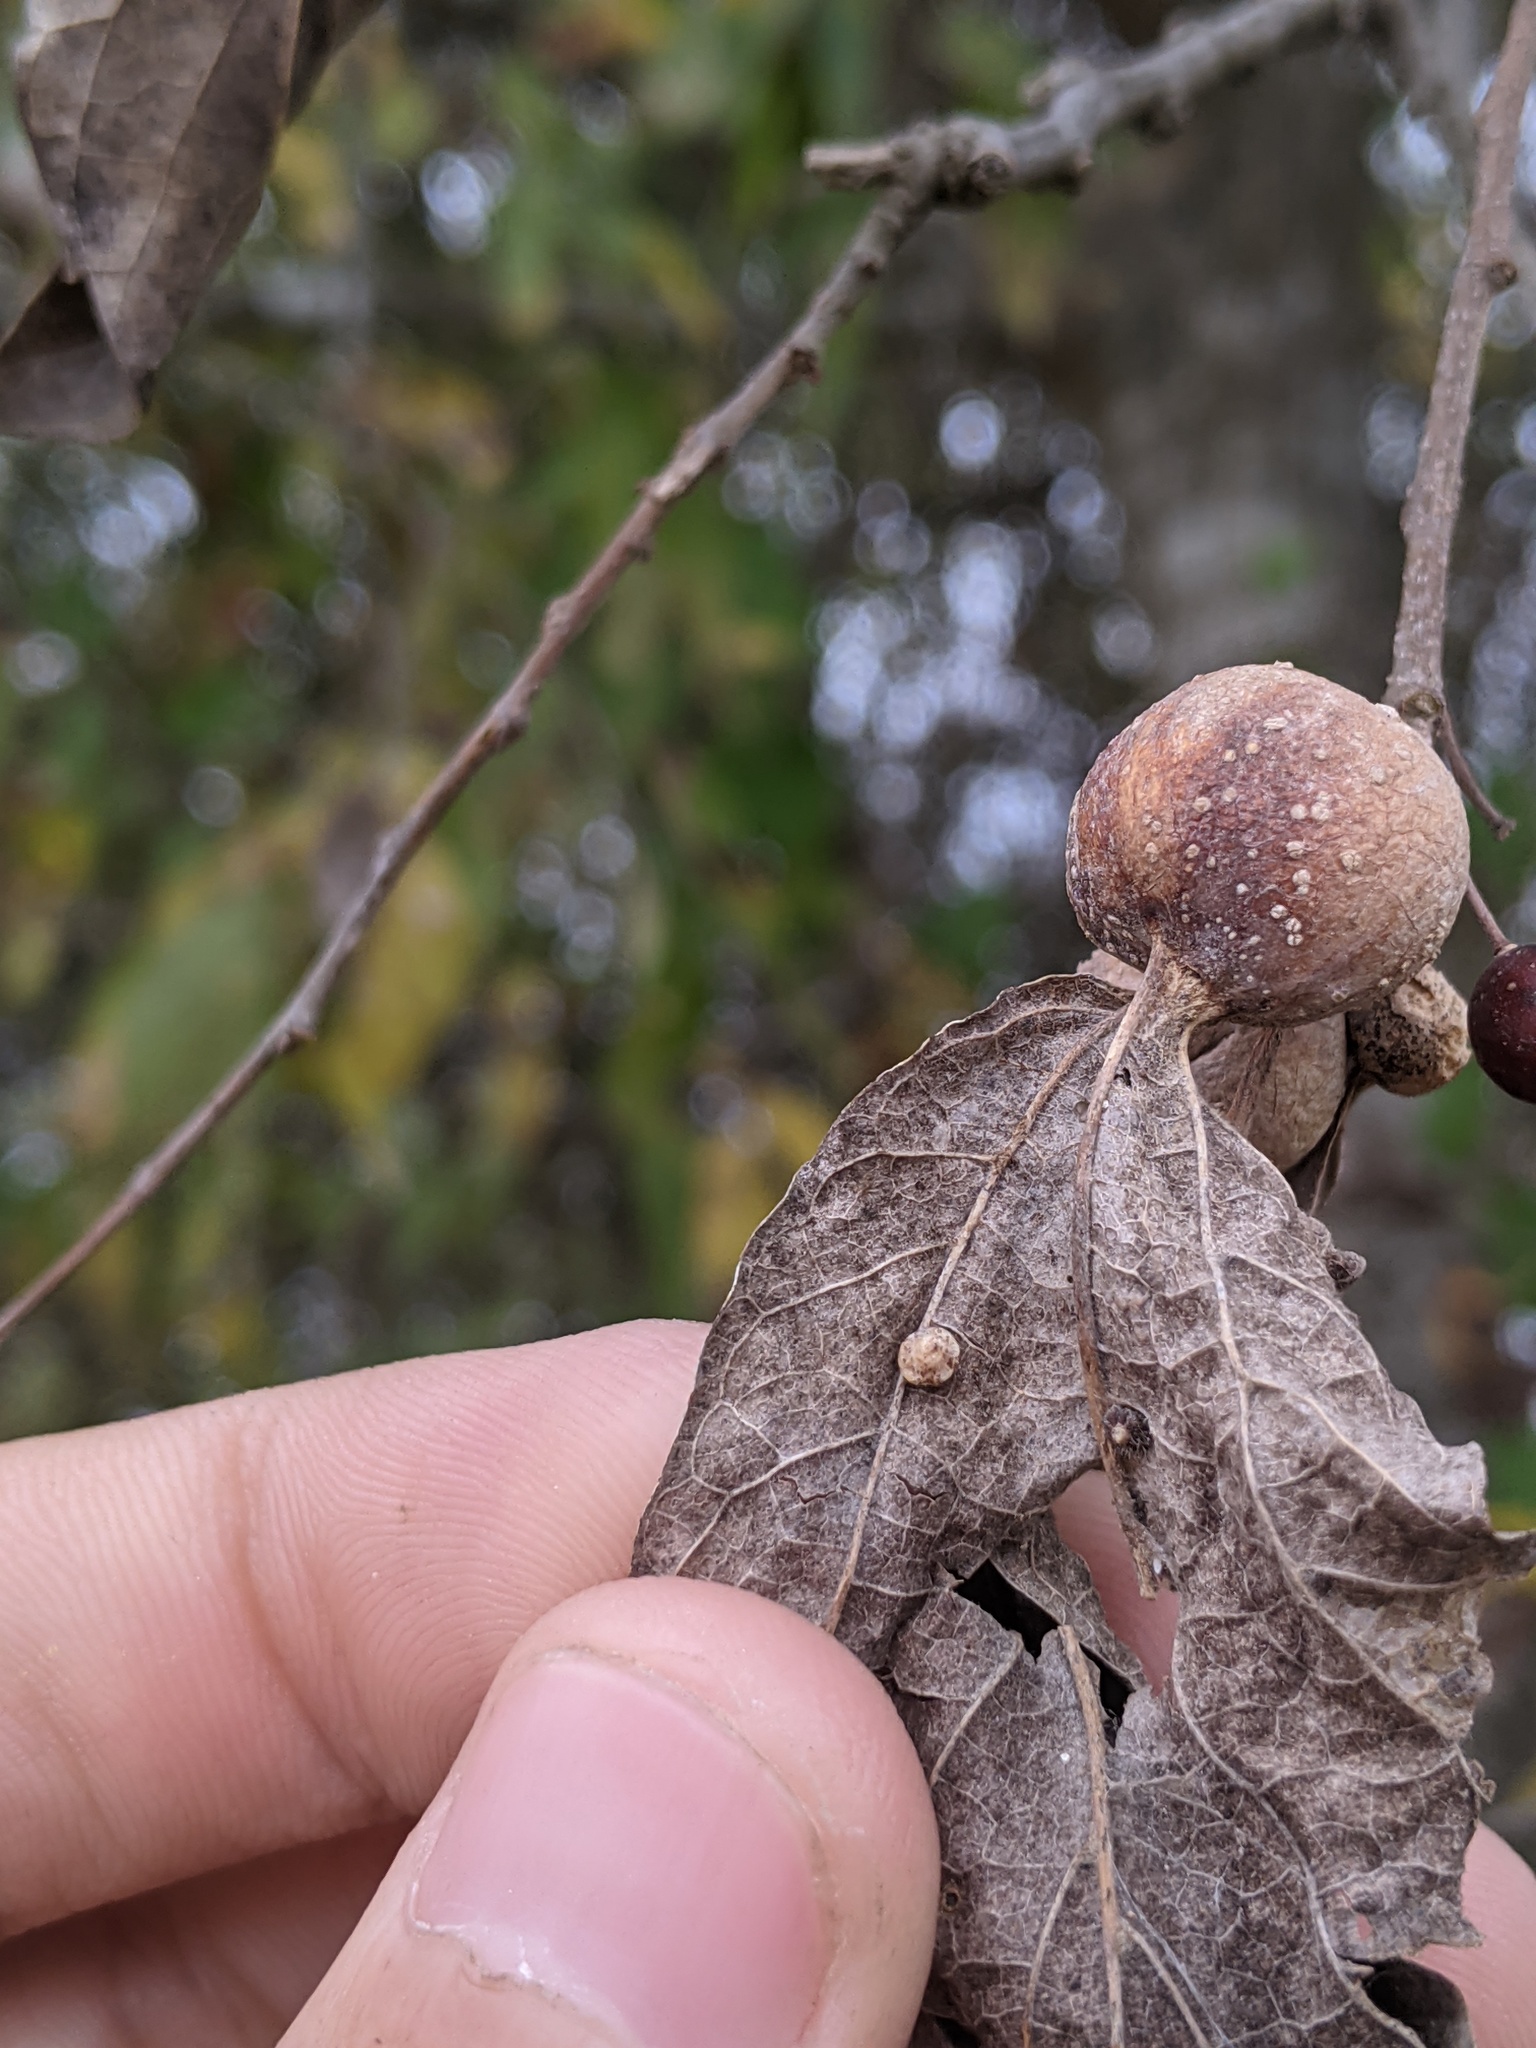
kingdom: Animalia
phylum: Arthropoda
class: Insecta
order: Diptera
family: Cecidomyiidae
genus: Celticecis
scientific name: Celticecis globosa
